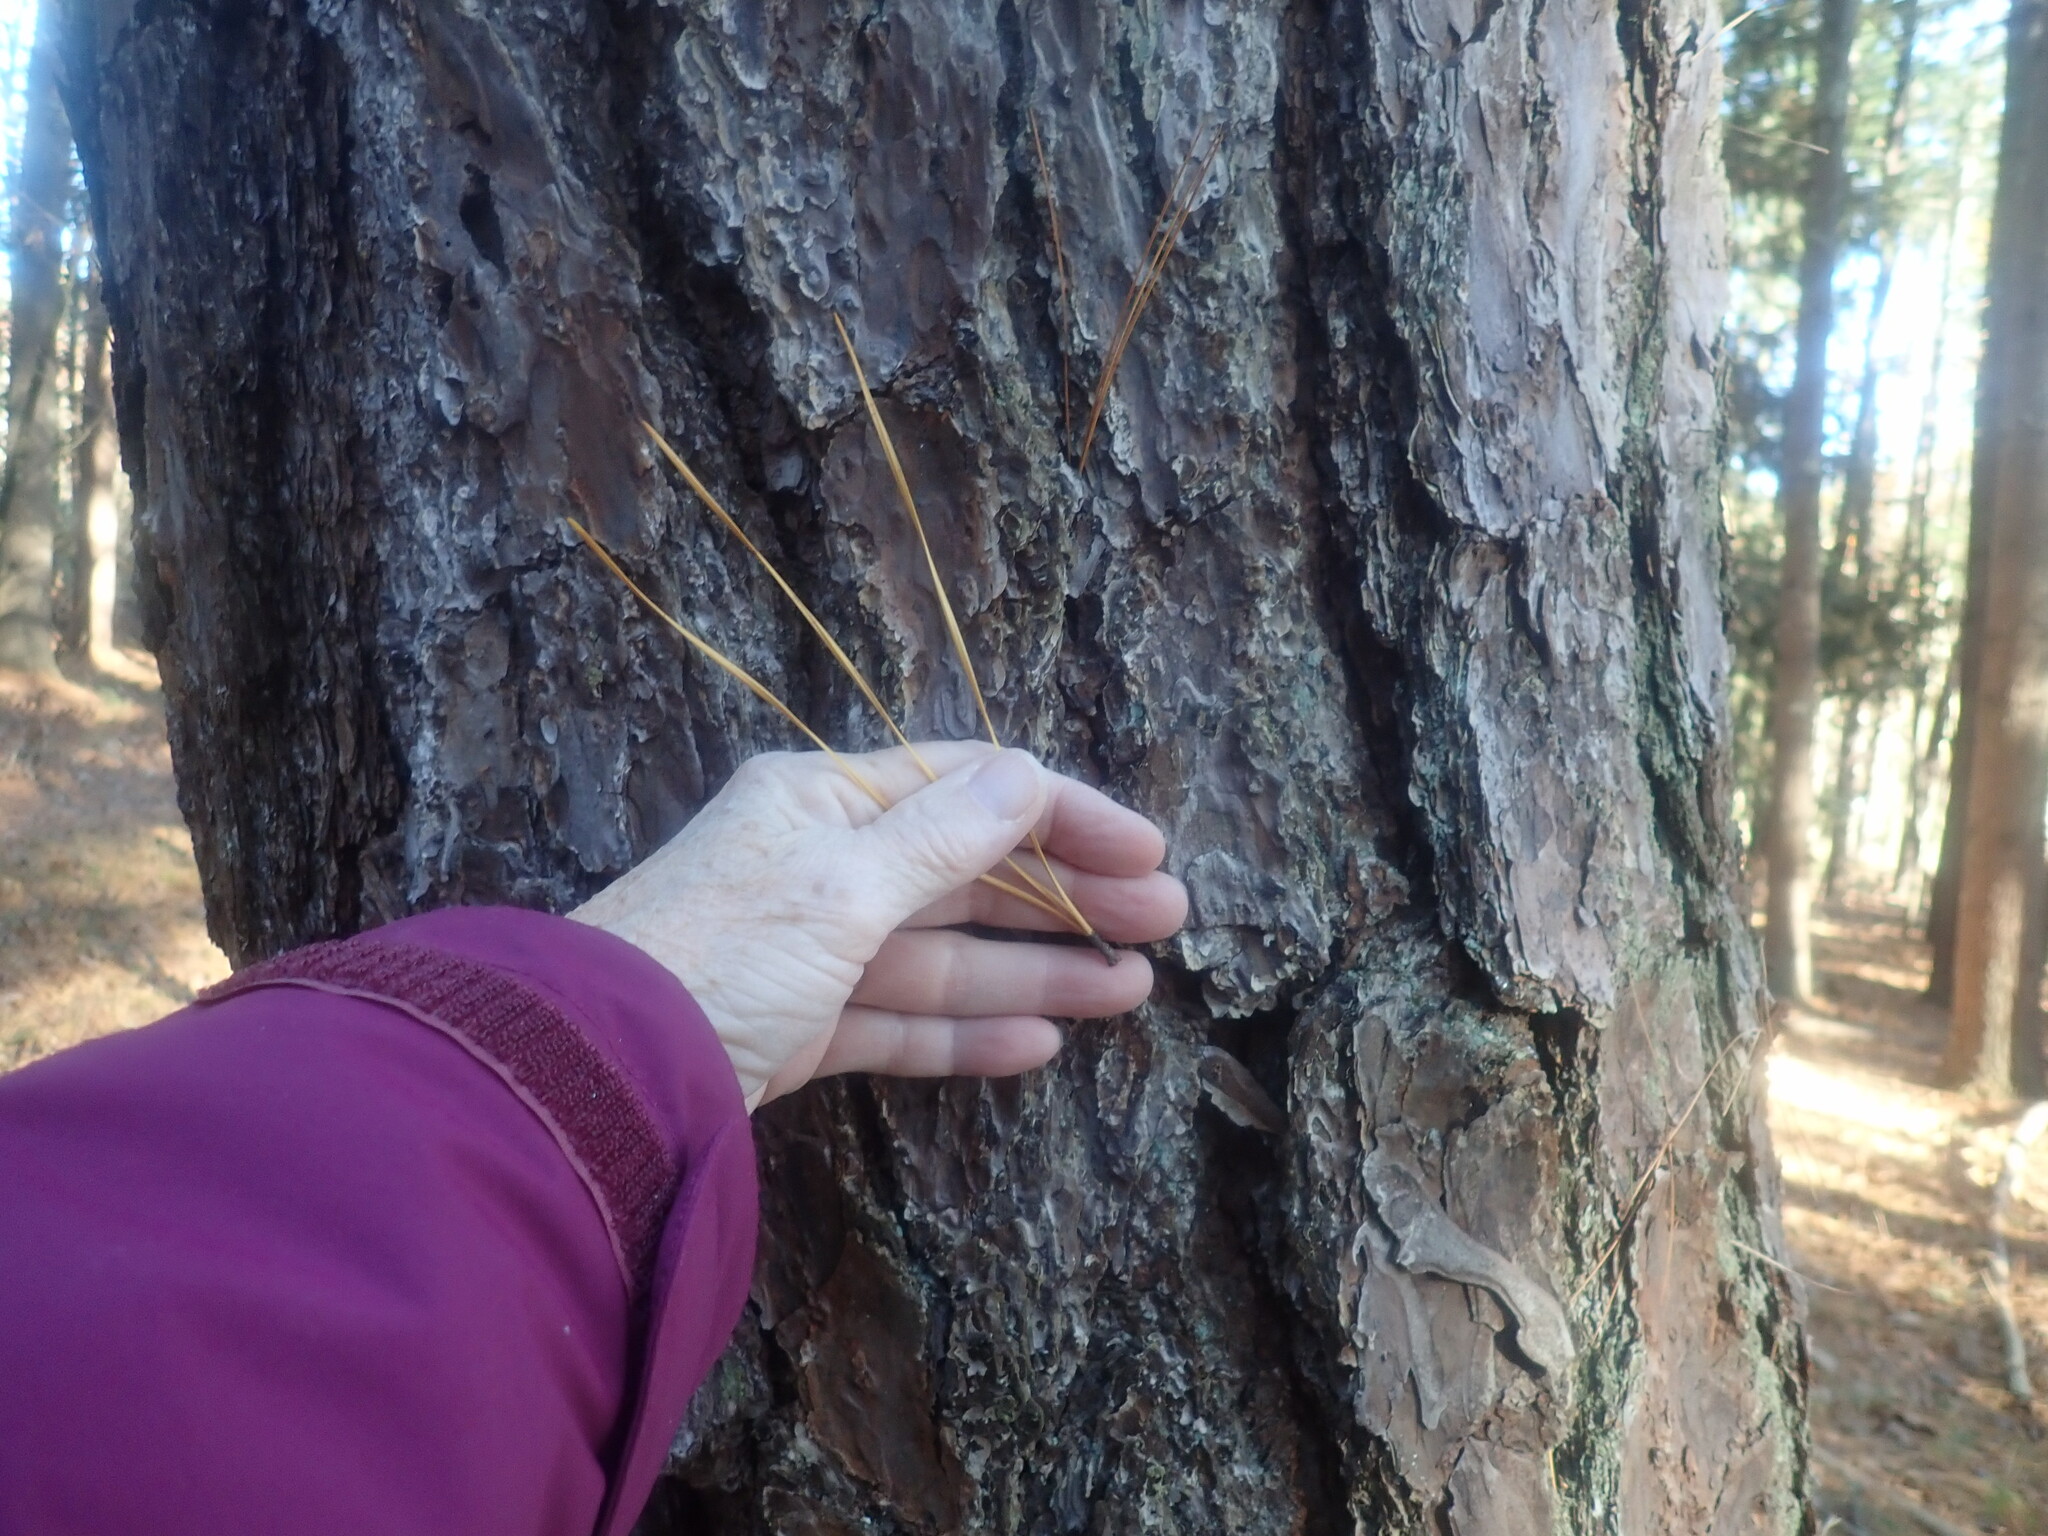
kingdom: Plantae
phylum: Tracheophyta
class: Pinopsida
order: Pinales
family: Pinaceae
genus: Pinus
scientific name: Pinus rigida
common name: Pitch pine
